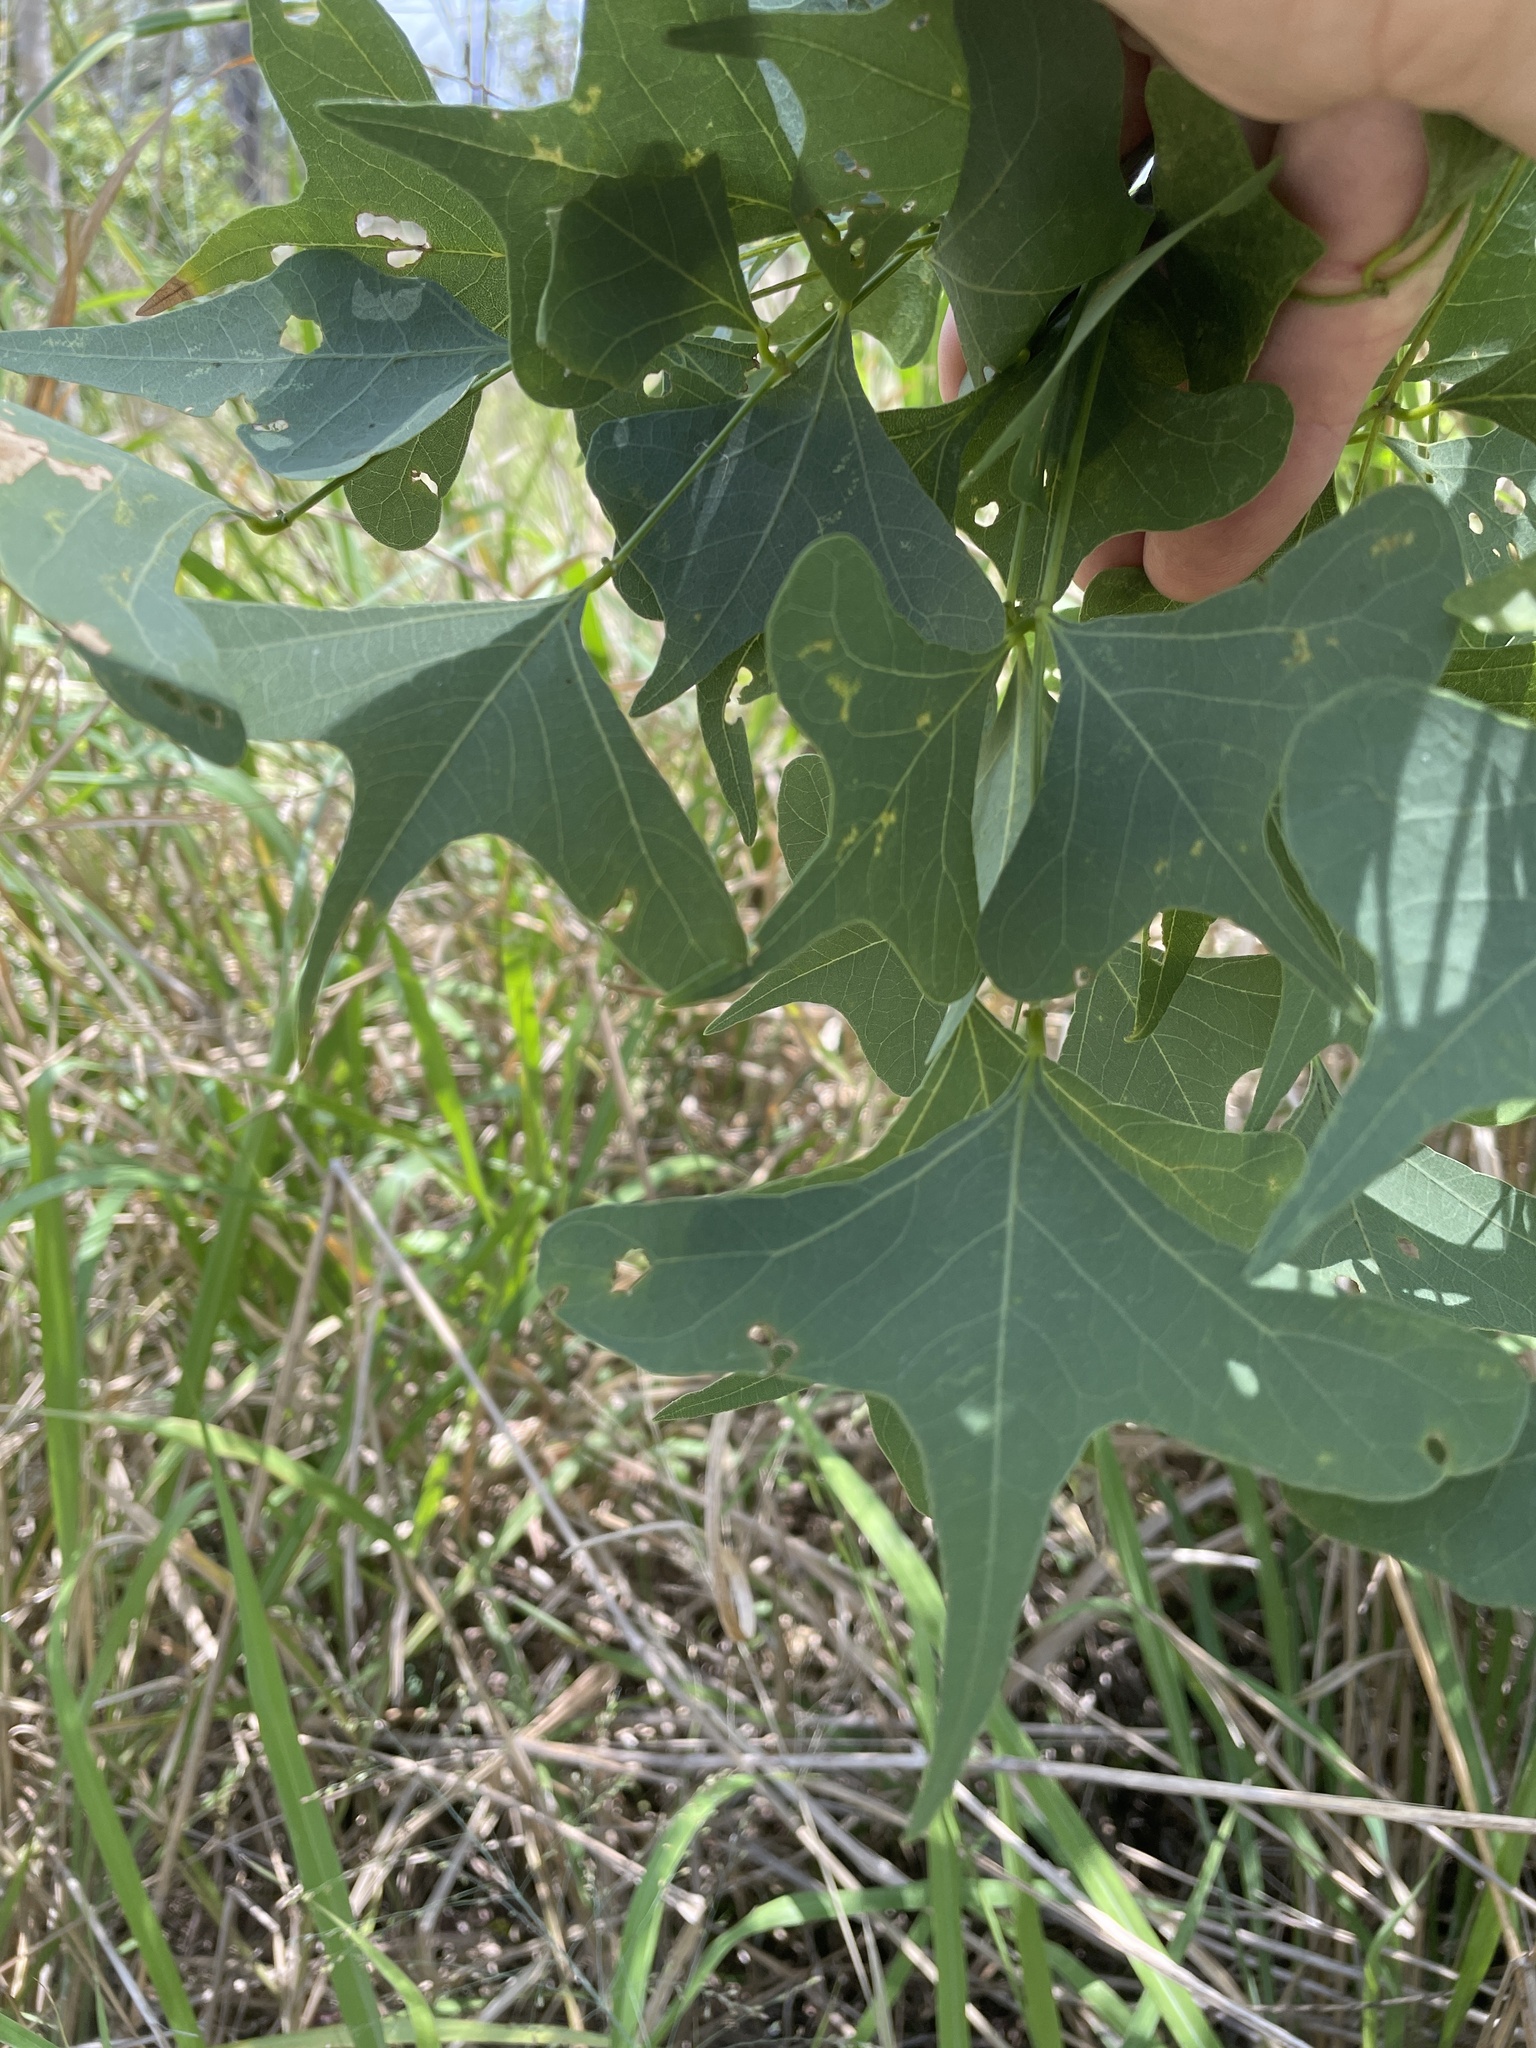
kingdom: Plantae
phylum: Tracheophyta
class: Magnoliopsida
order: Fabales
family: Fabaceae
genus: Erythrina
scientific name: Erythrina vespertilio
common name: Bat-wing coral tree
